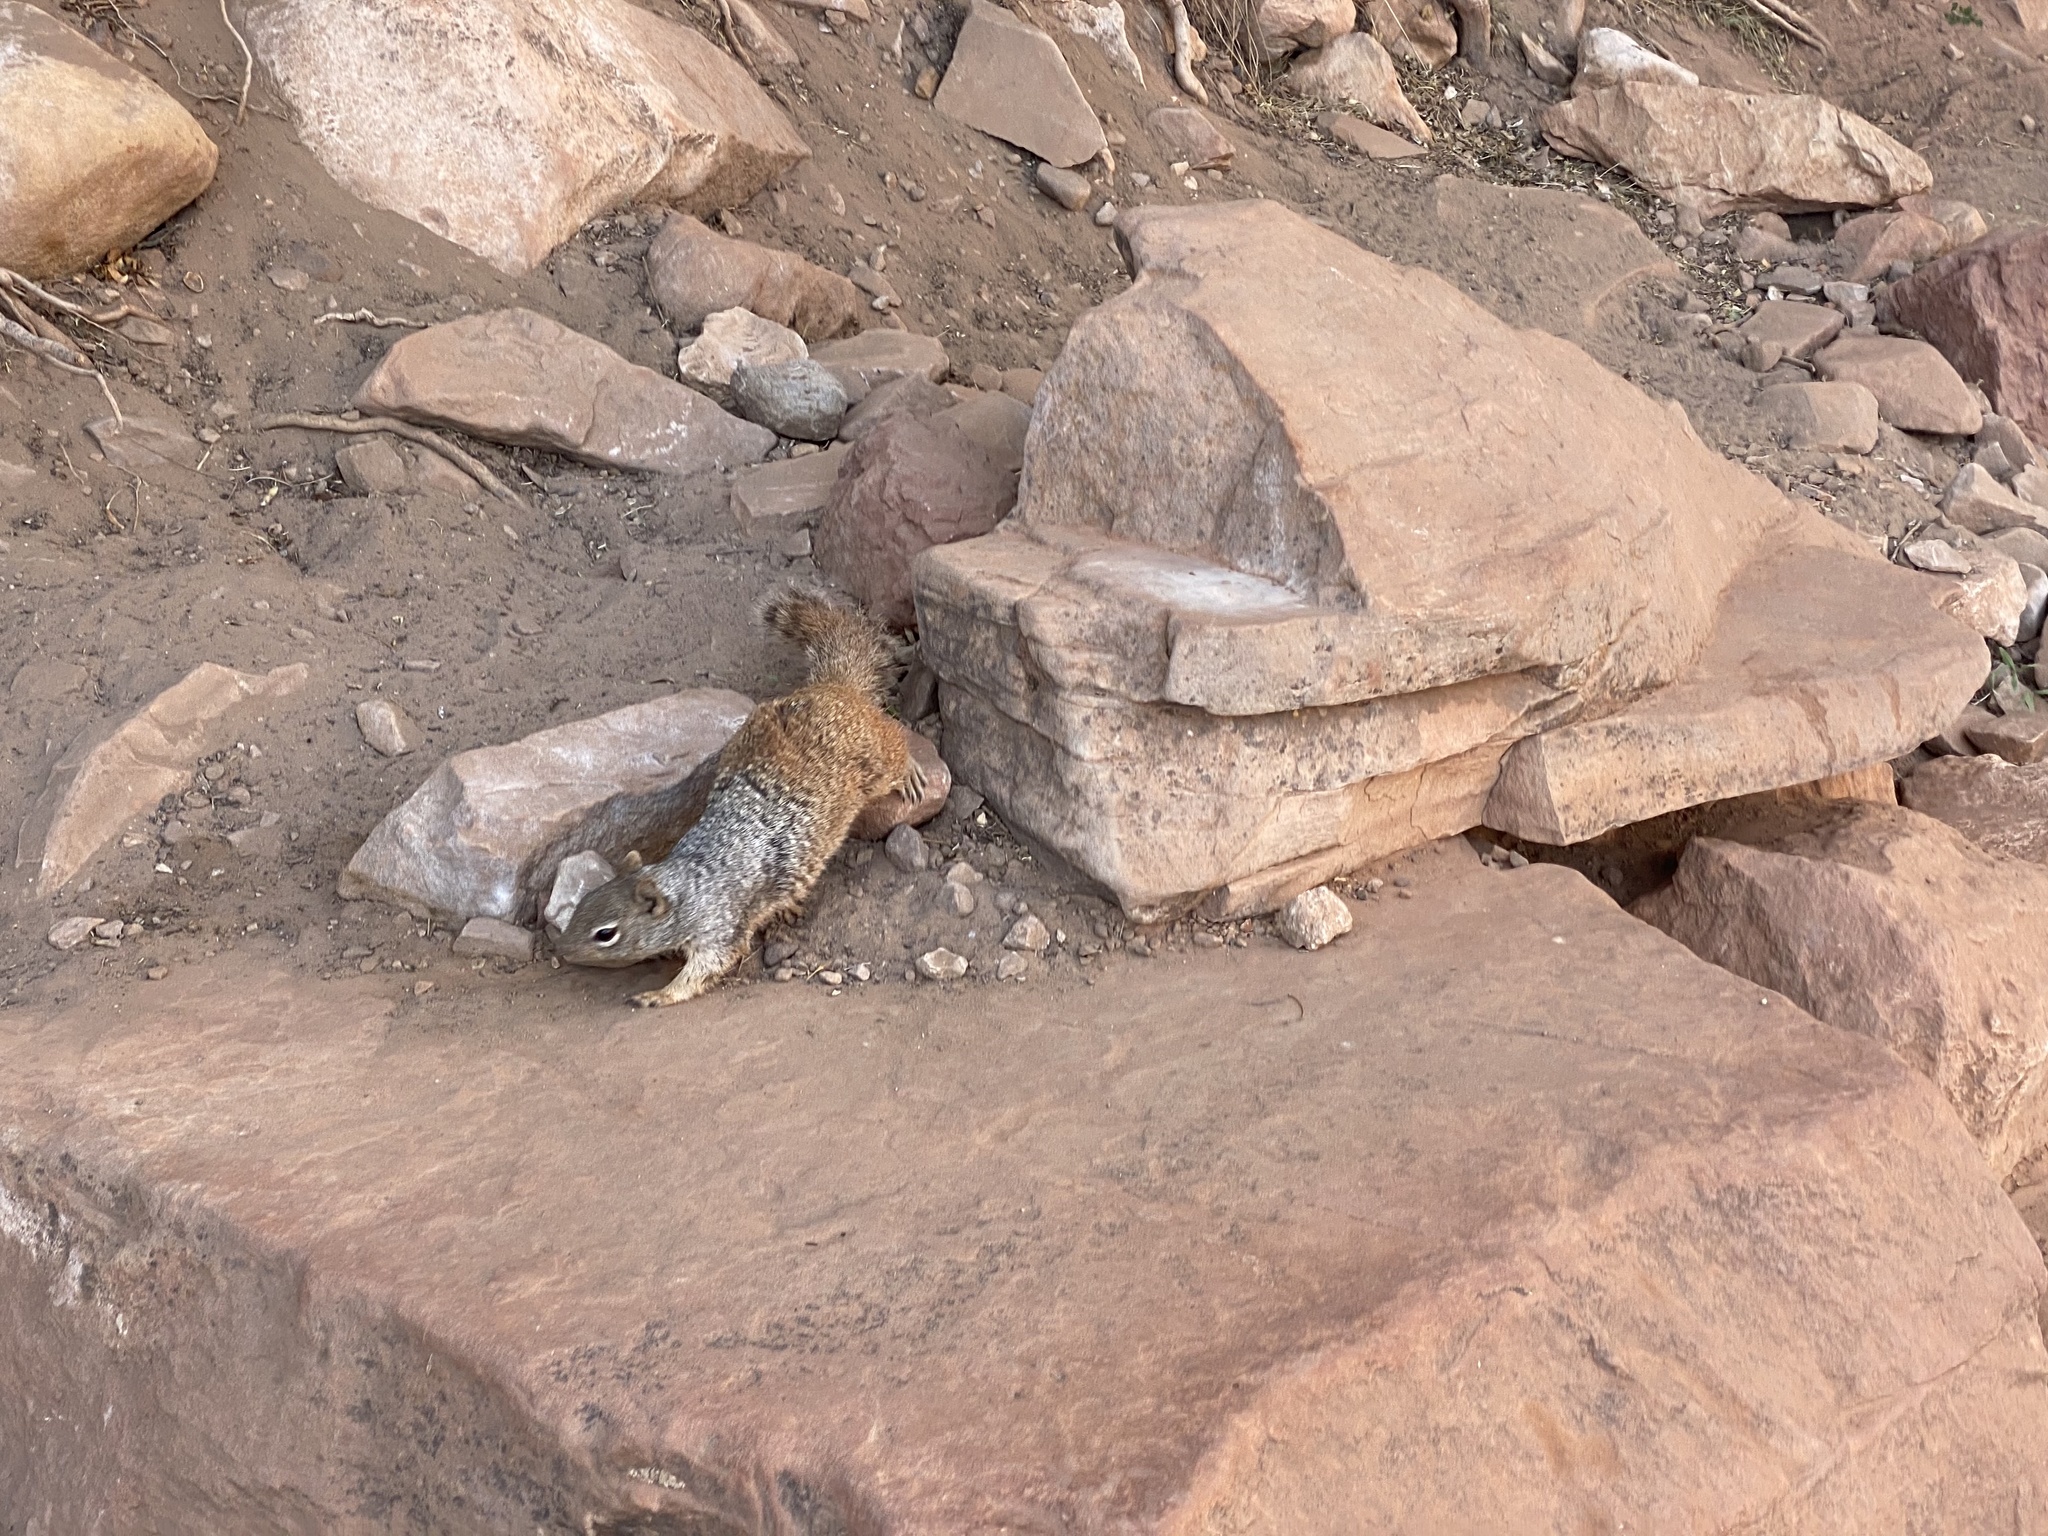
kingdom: Animalia
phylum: Chordata
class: Mammalia
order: Rodentia
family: Sciuridae
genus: Otospermophilus
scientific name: Otospermophilus variegatus
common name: Rock squirrel
